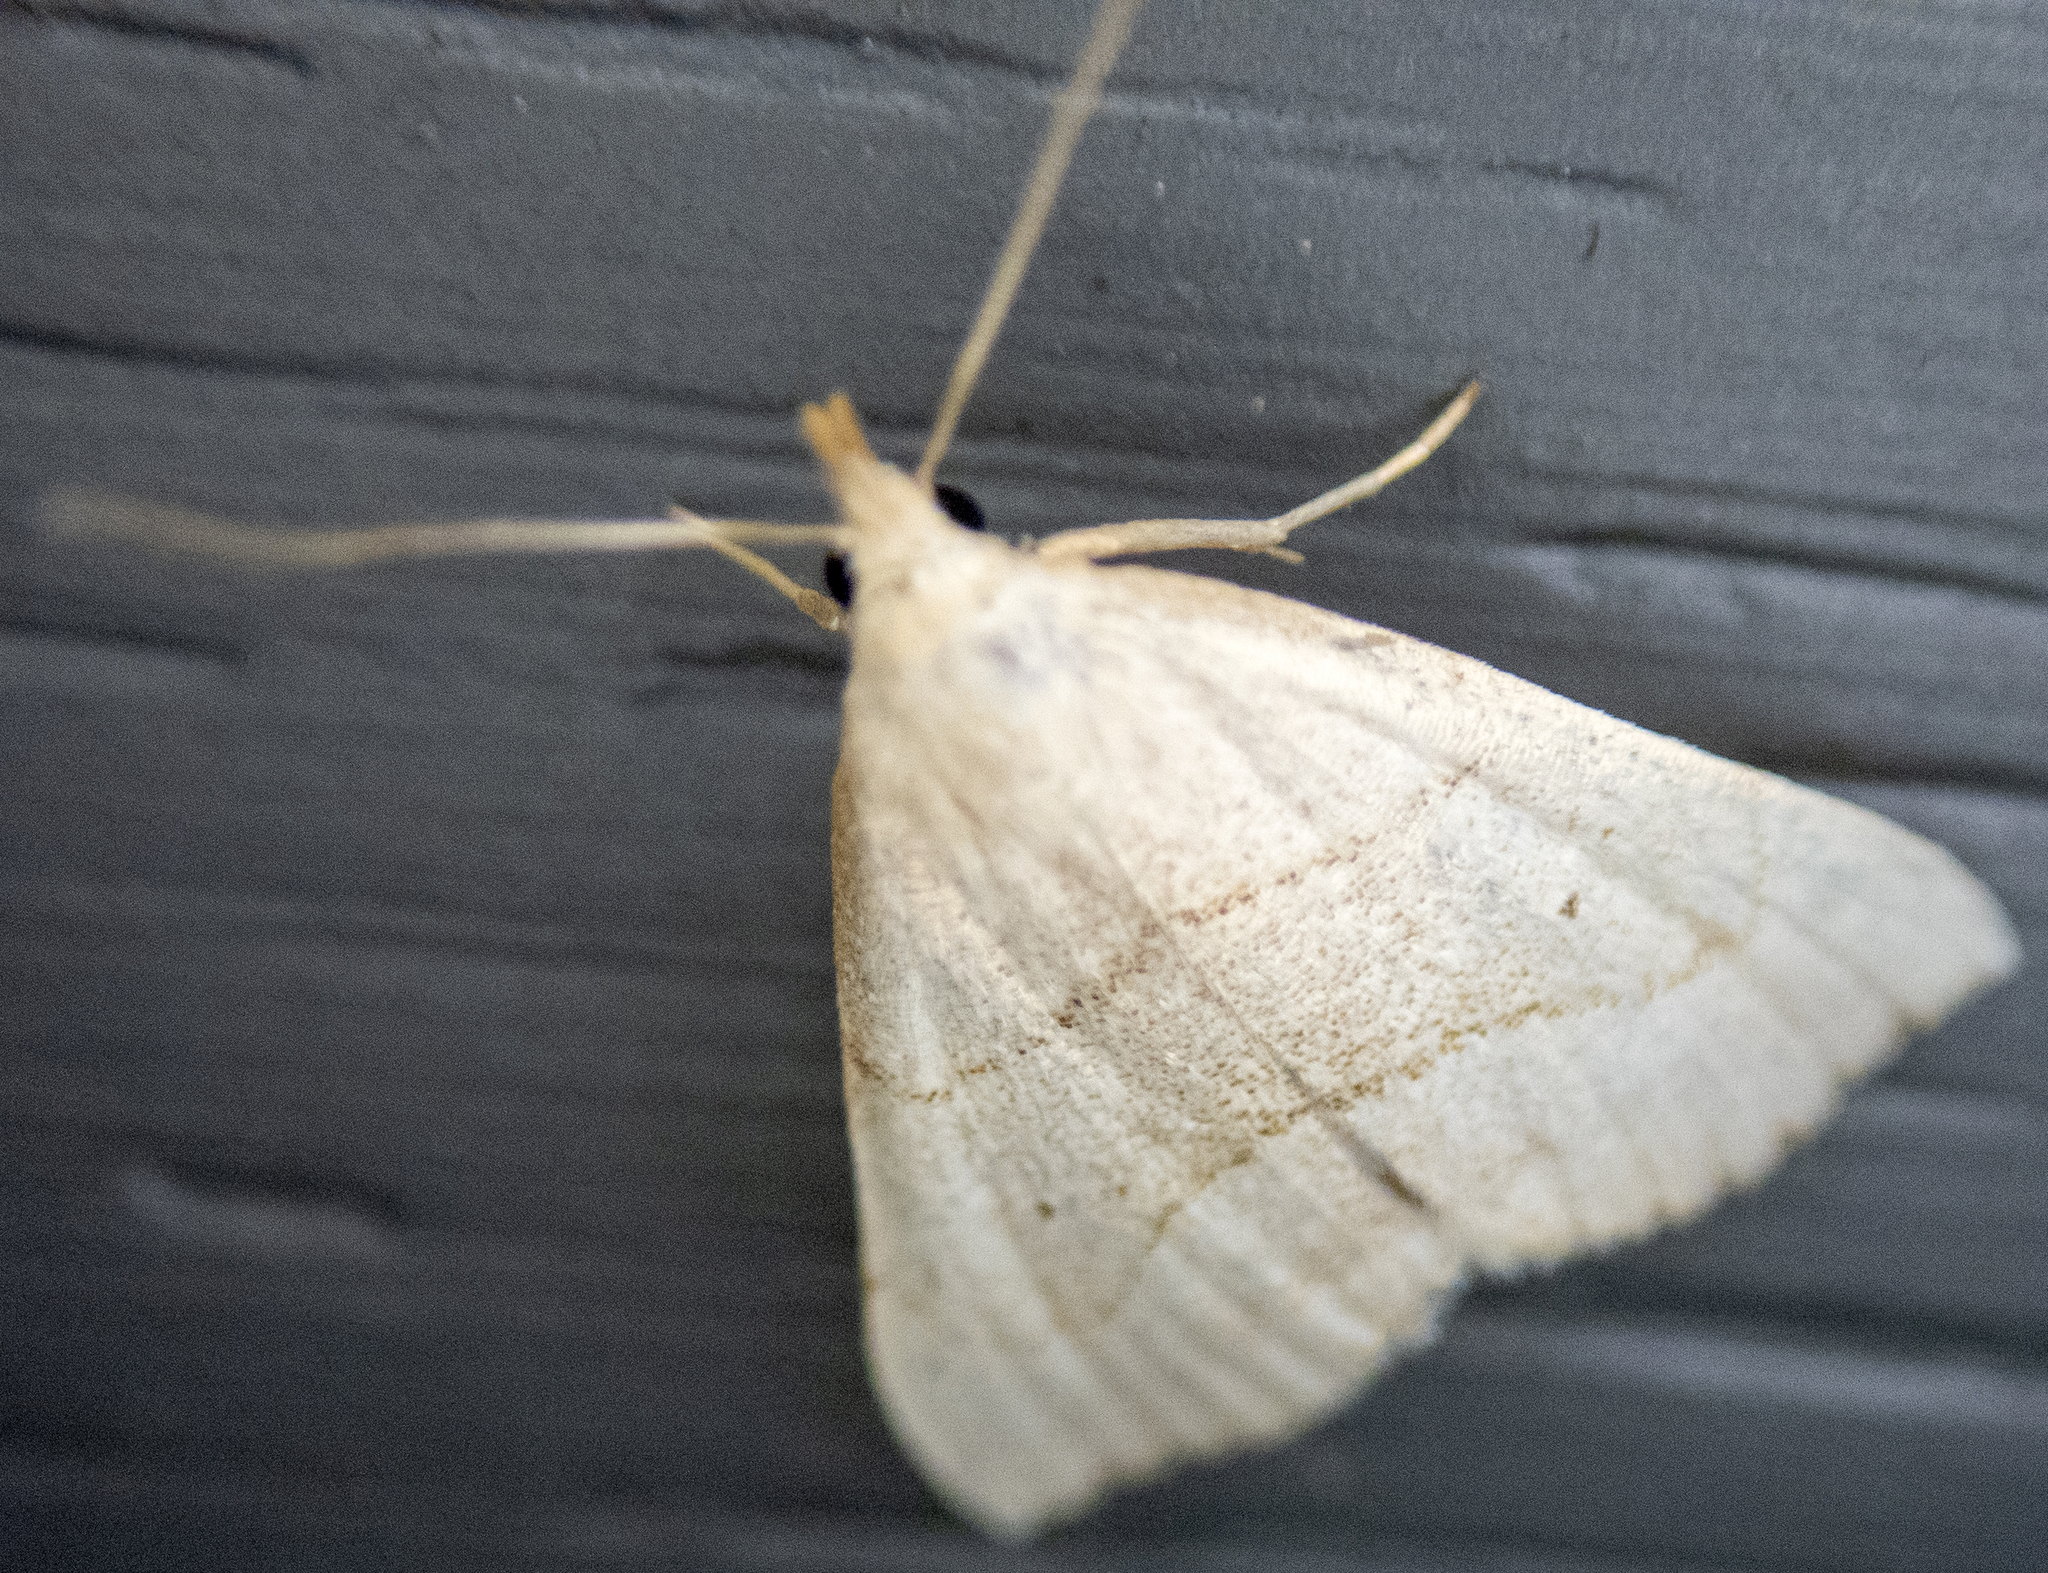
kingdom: Animalia
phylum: Arthropoda
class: Insecta
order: Lepidoptera
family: Erebidae
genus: Macrochilo
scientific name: Macrochilo litophora
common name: Brown-lined owlet
